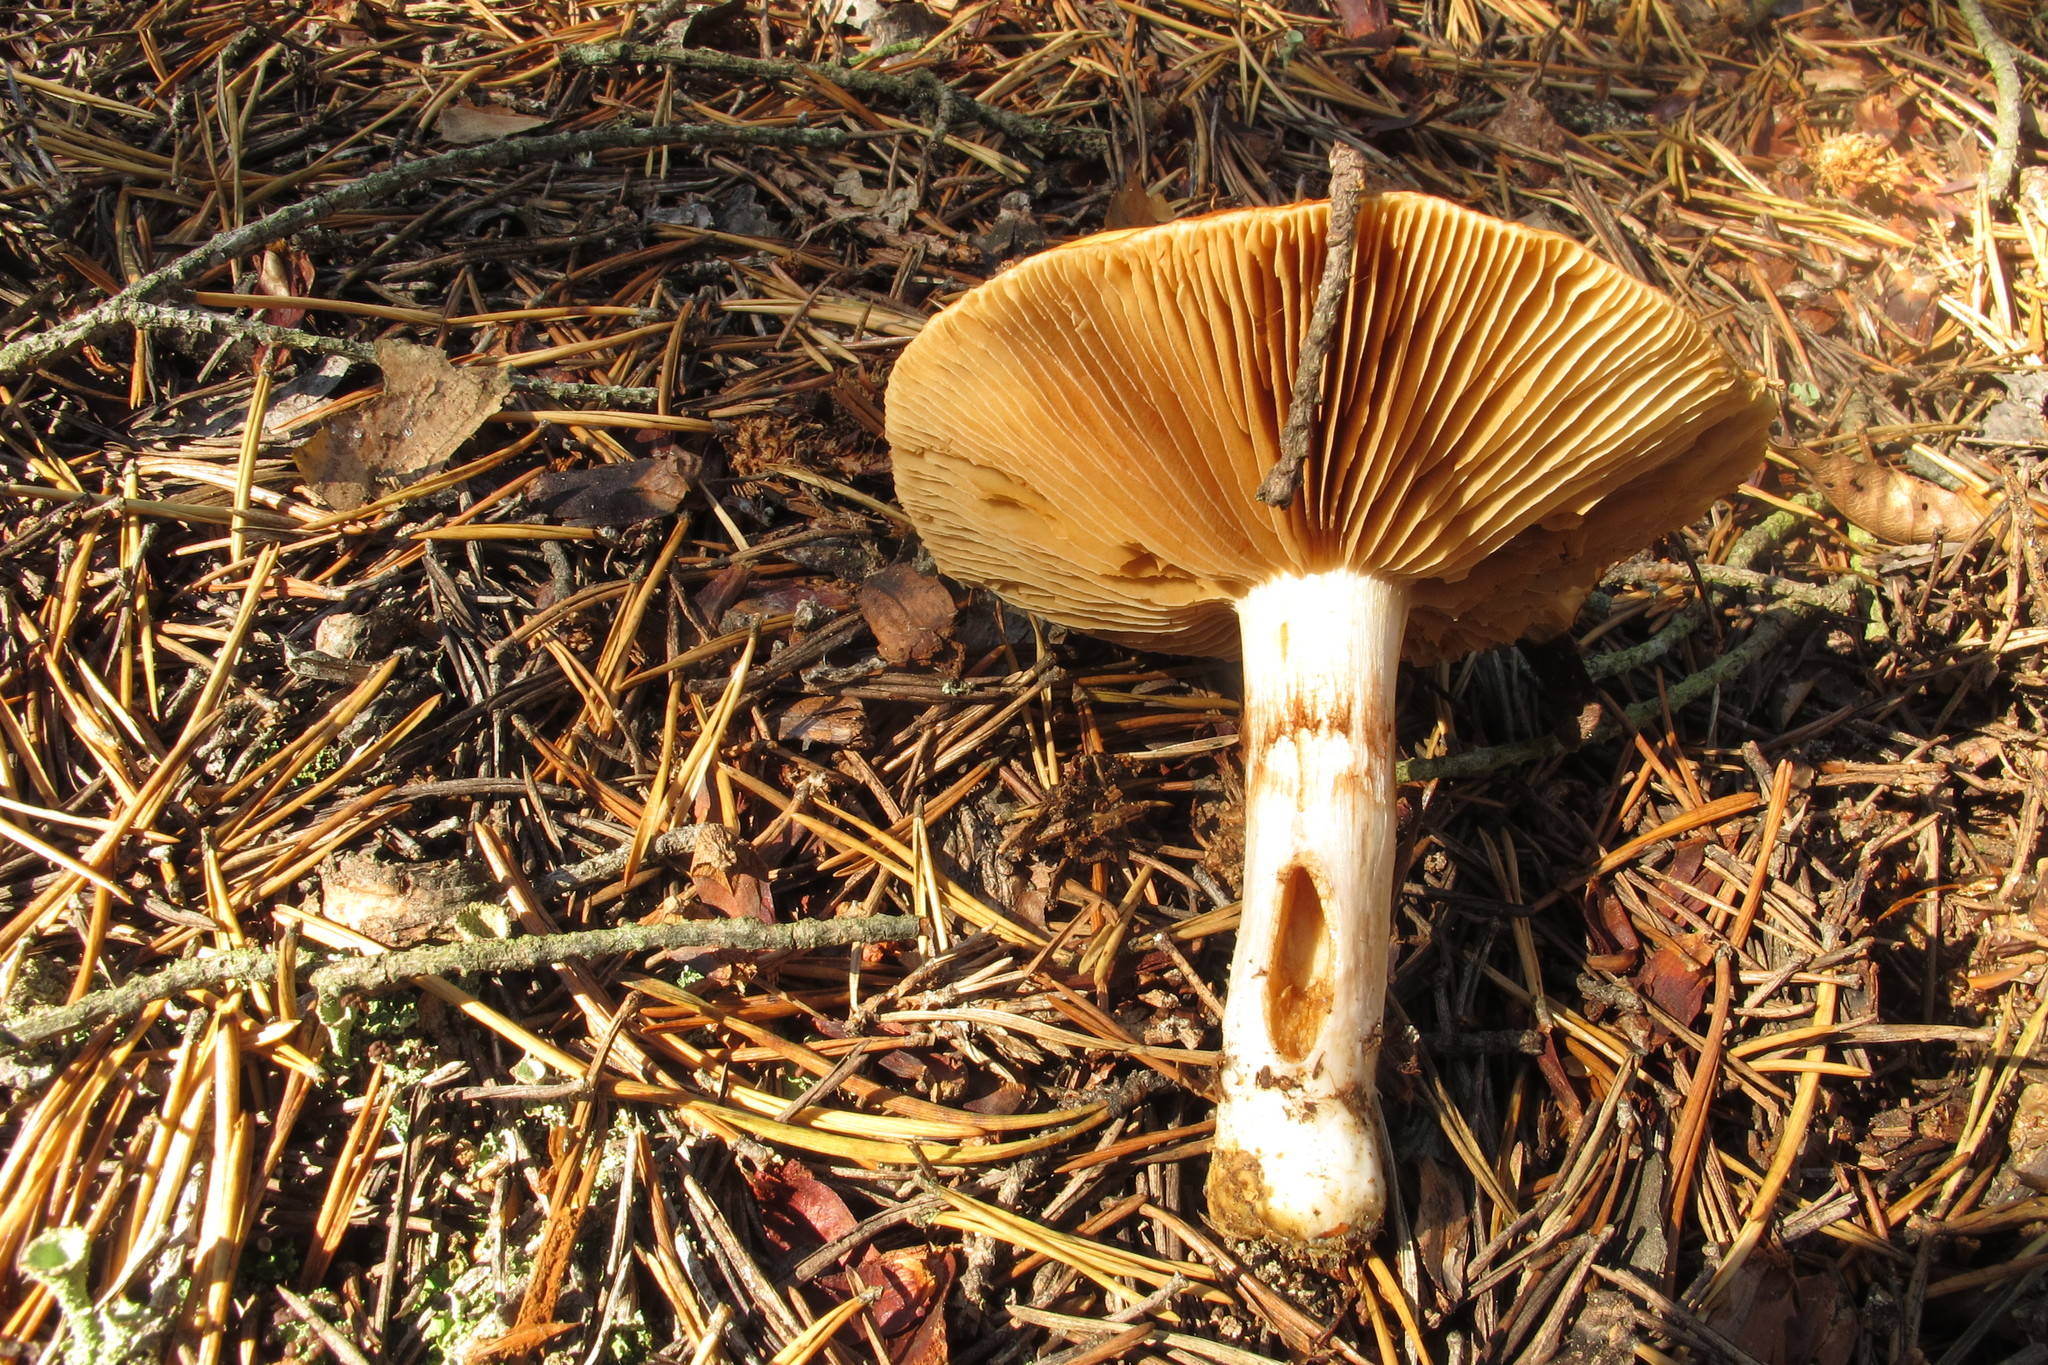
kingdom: Fungi
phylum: Basidiomycota
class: Agaricomycetes
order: Agaricales
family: Cortinariaceae
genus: Cortinarius
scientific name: Cortinarius mucosus
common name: Orange webcap
